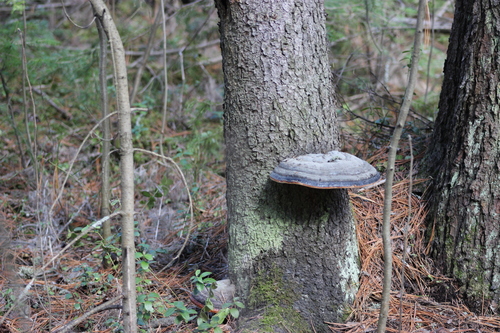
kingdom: Fungi
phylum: Basidiomycota
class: Agaricomycetes
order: Polyporales
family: Fomitopsidaceae
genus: Fomitopsis
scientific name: Fomitopsis pinicola
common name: Red-belted bracket
